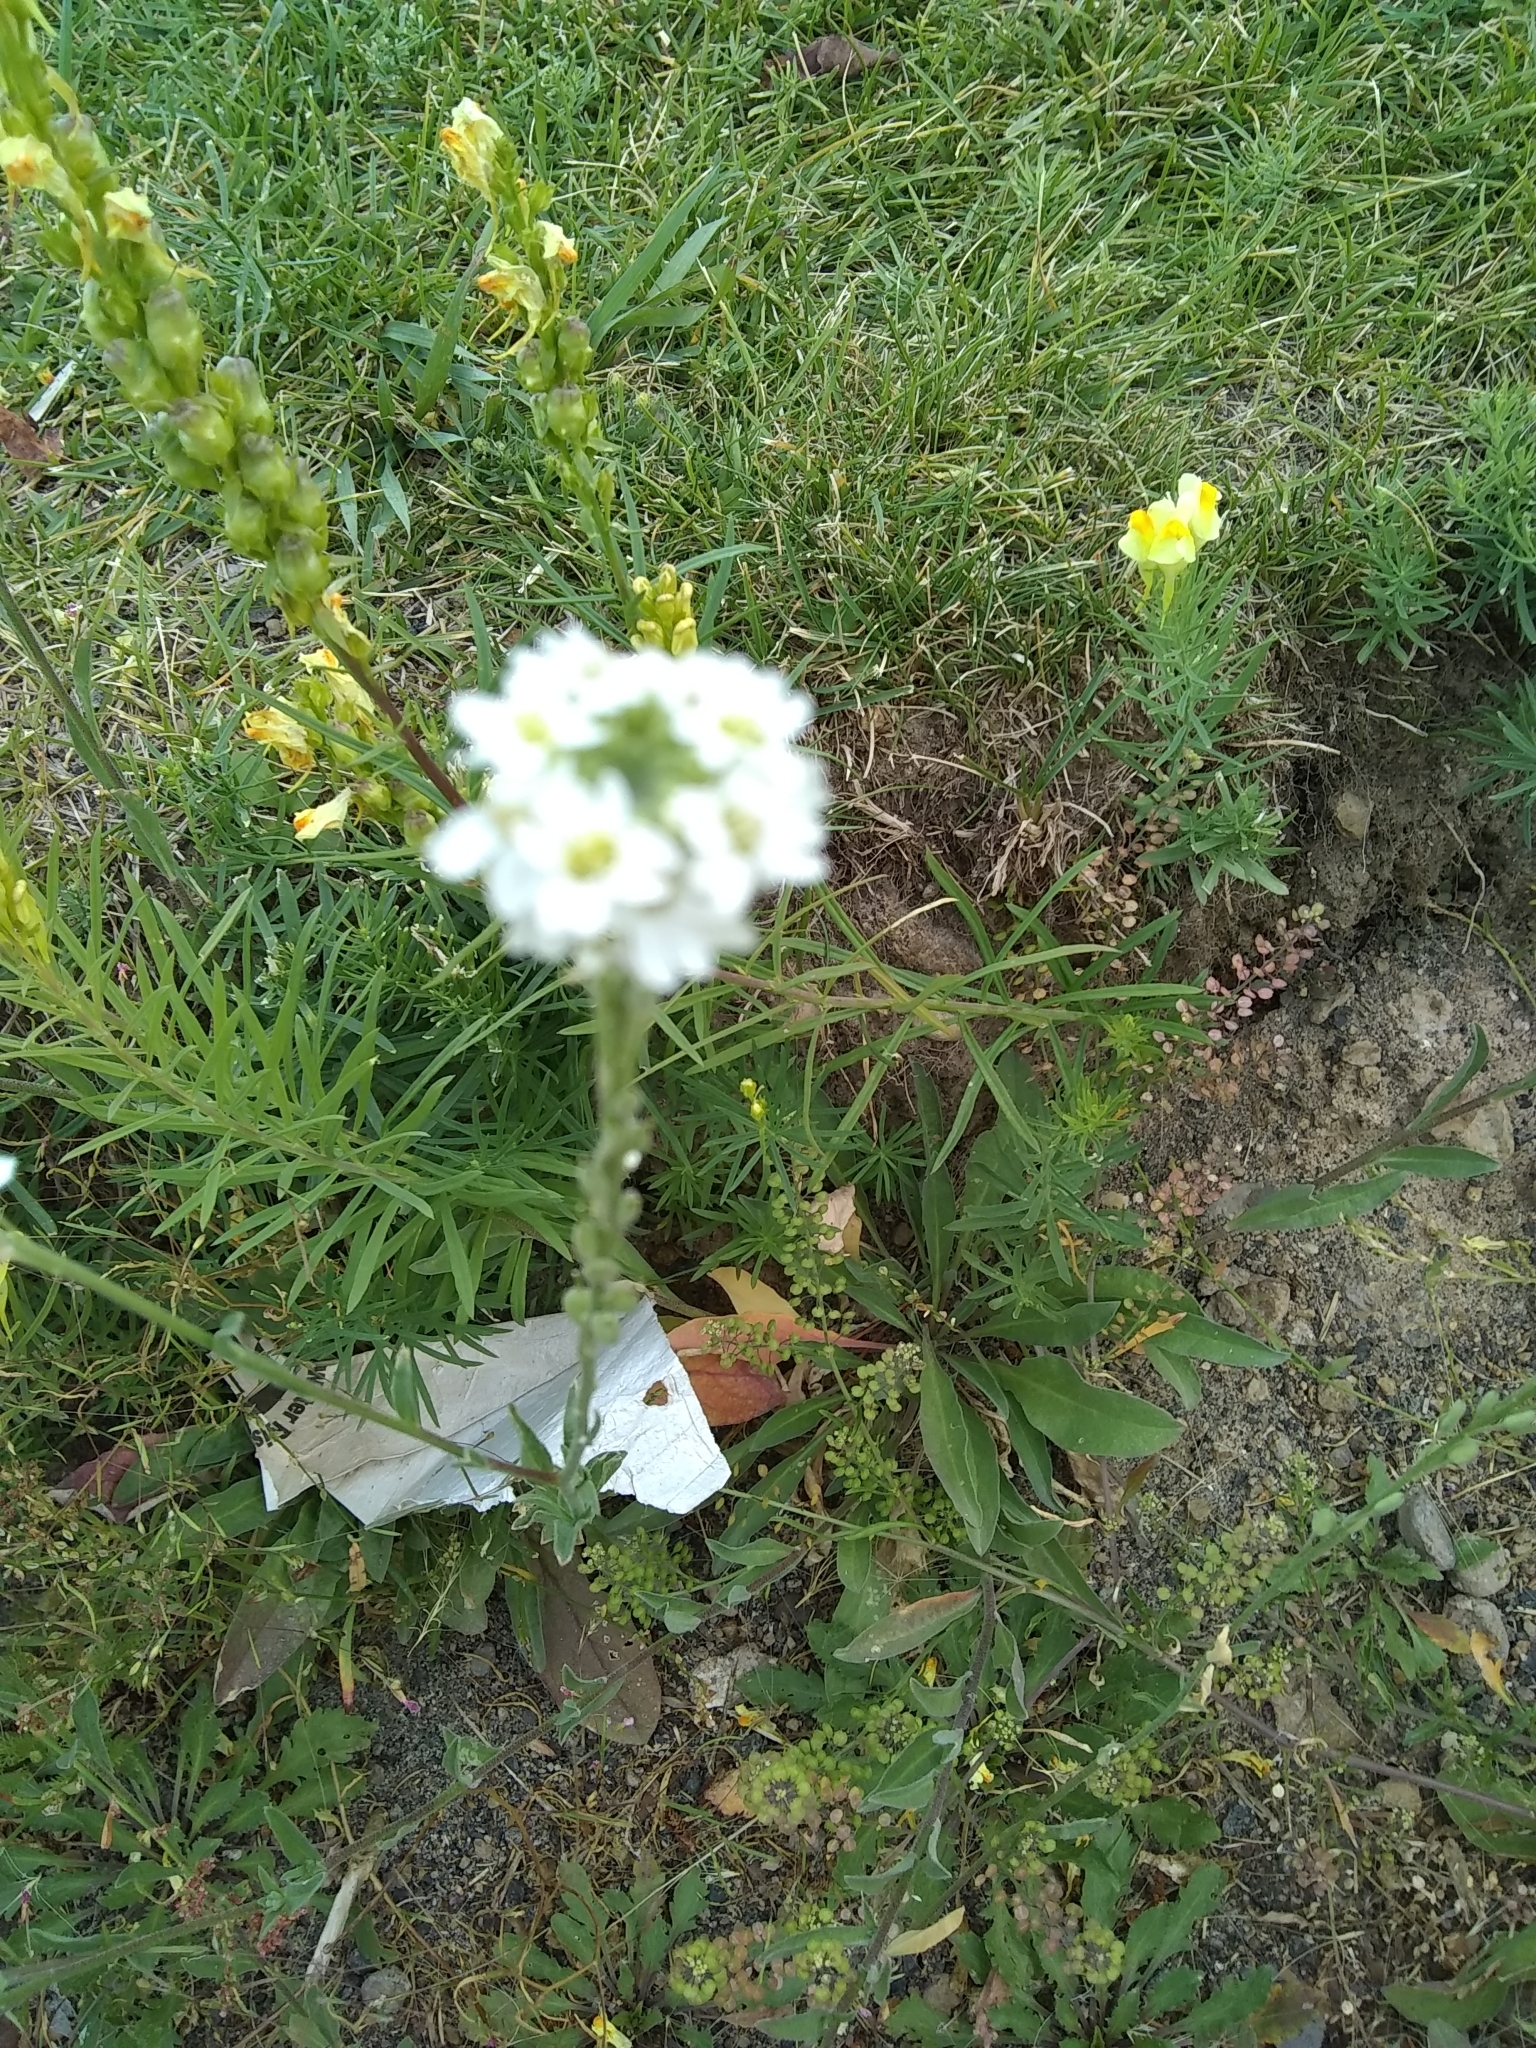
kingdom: Plantae
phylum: Tracheophyta
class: Magnoliopsida
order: Brassicales
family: Brassicaceae
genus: Berteroa
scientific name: Berteroa incana
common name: Hoary alison
